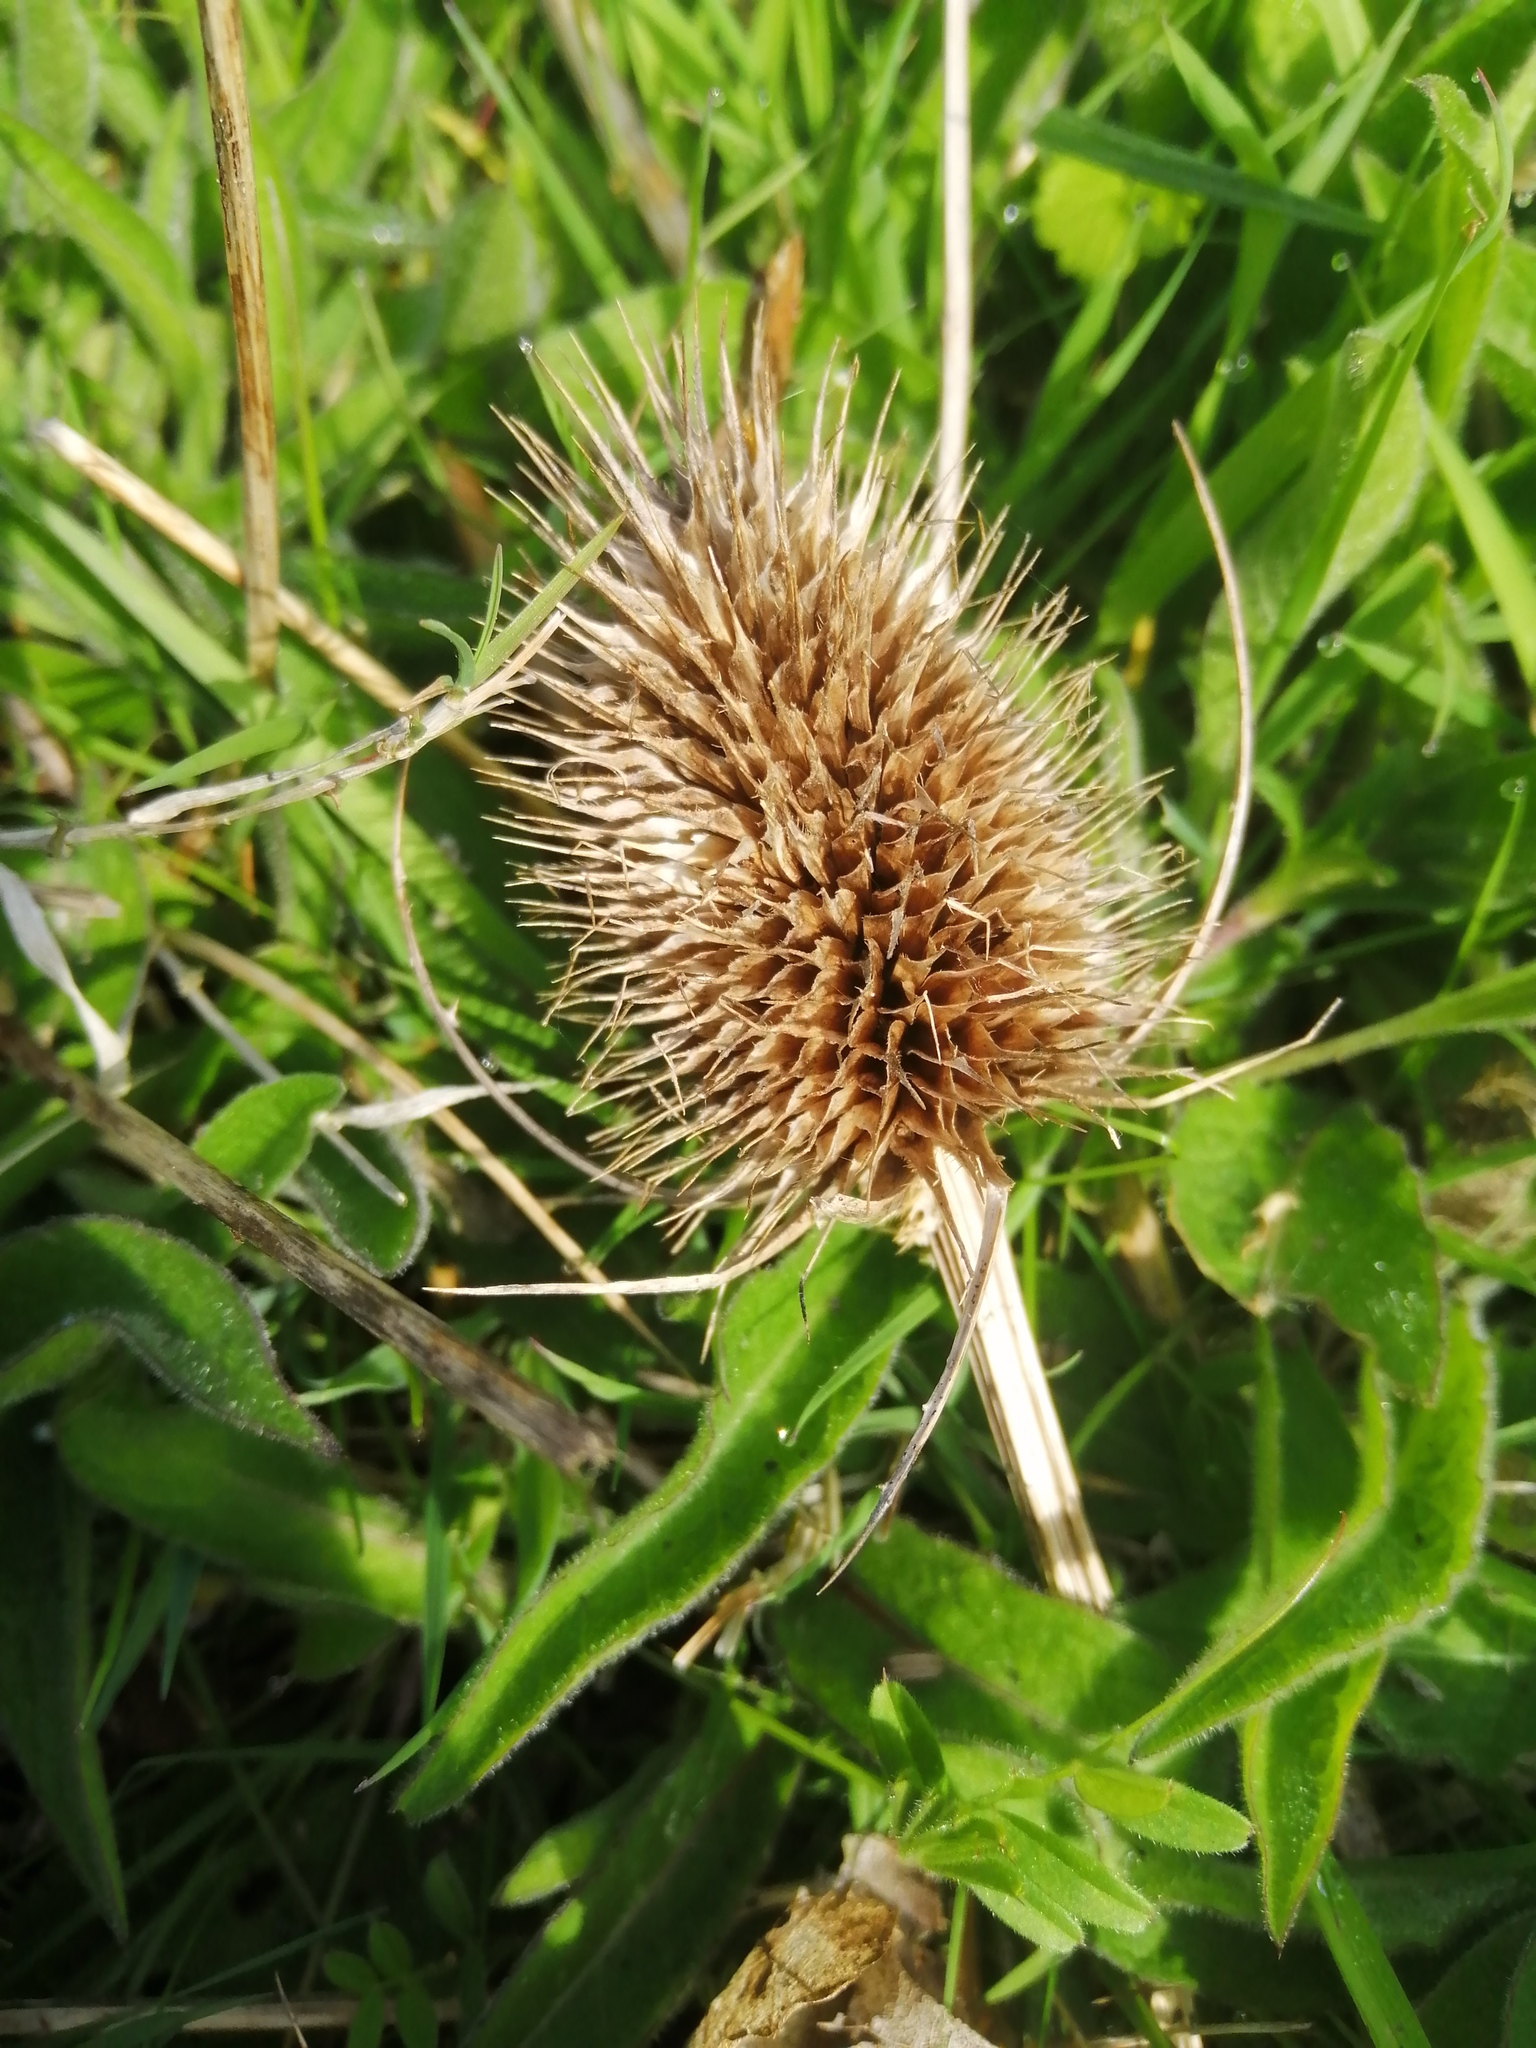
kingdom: Plantae
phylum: Tracheophyta
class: Magnoliopsida
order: Dipsacales
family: Caprifoliaceae
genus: Dipsacus
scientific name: Dipsacus fullonum
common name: Teasel
